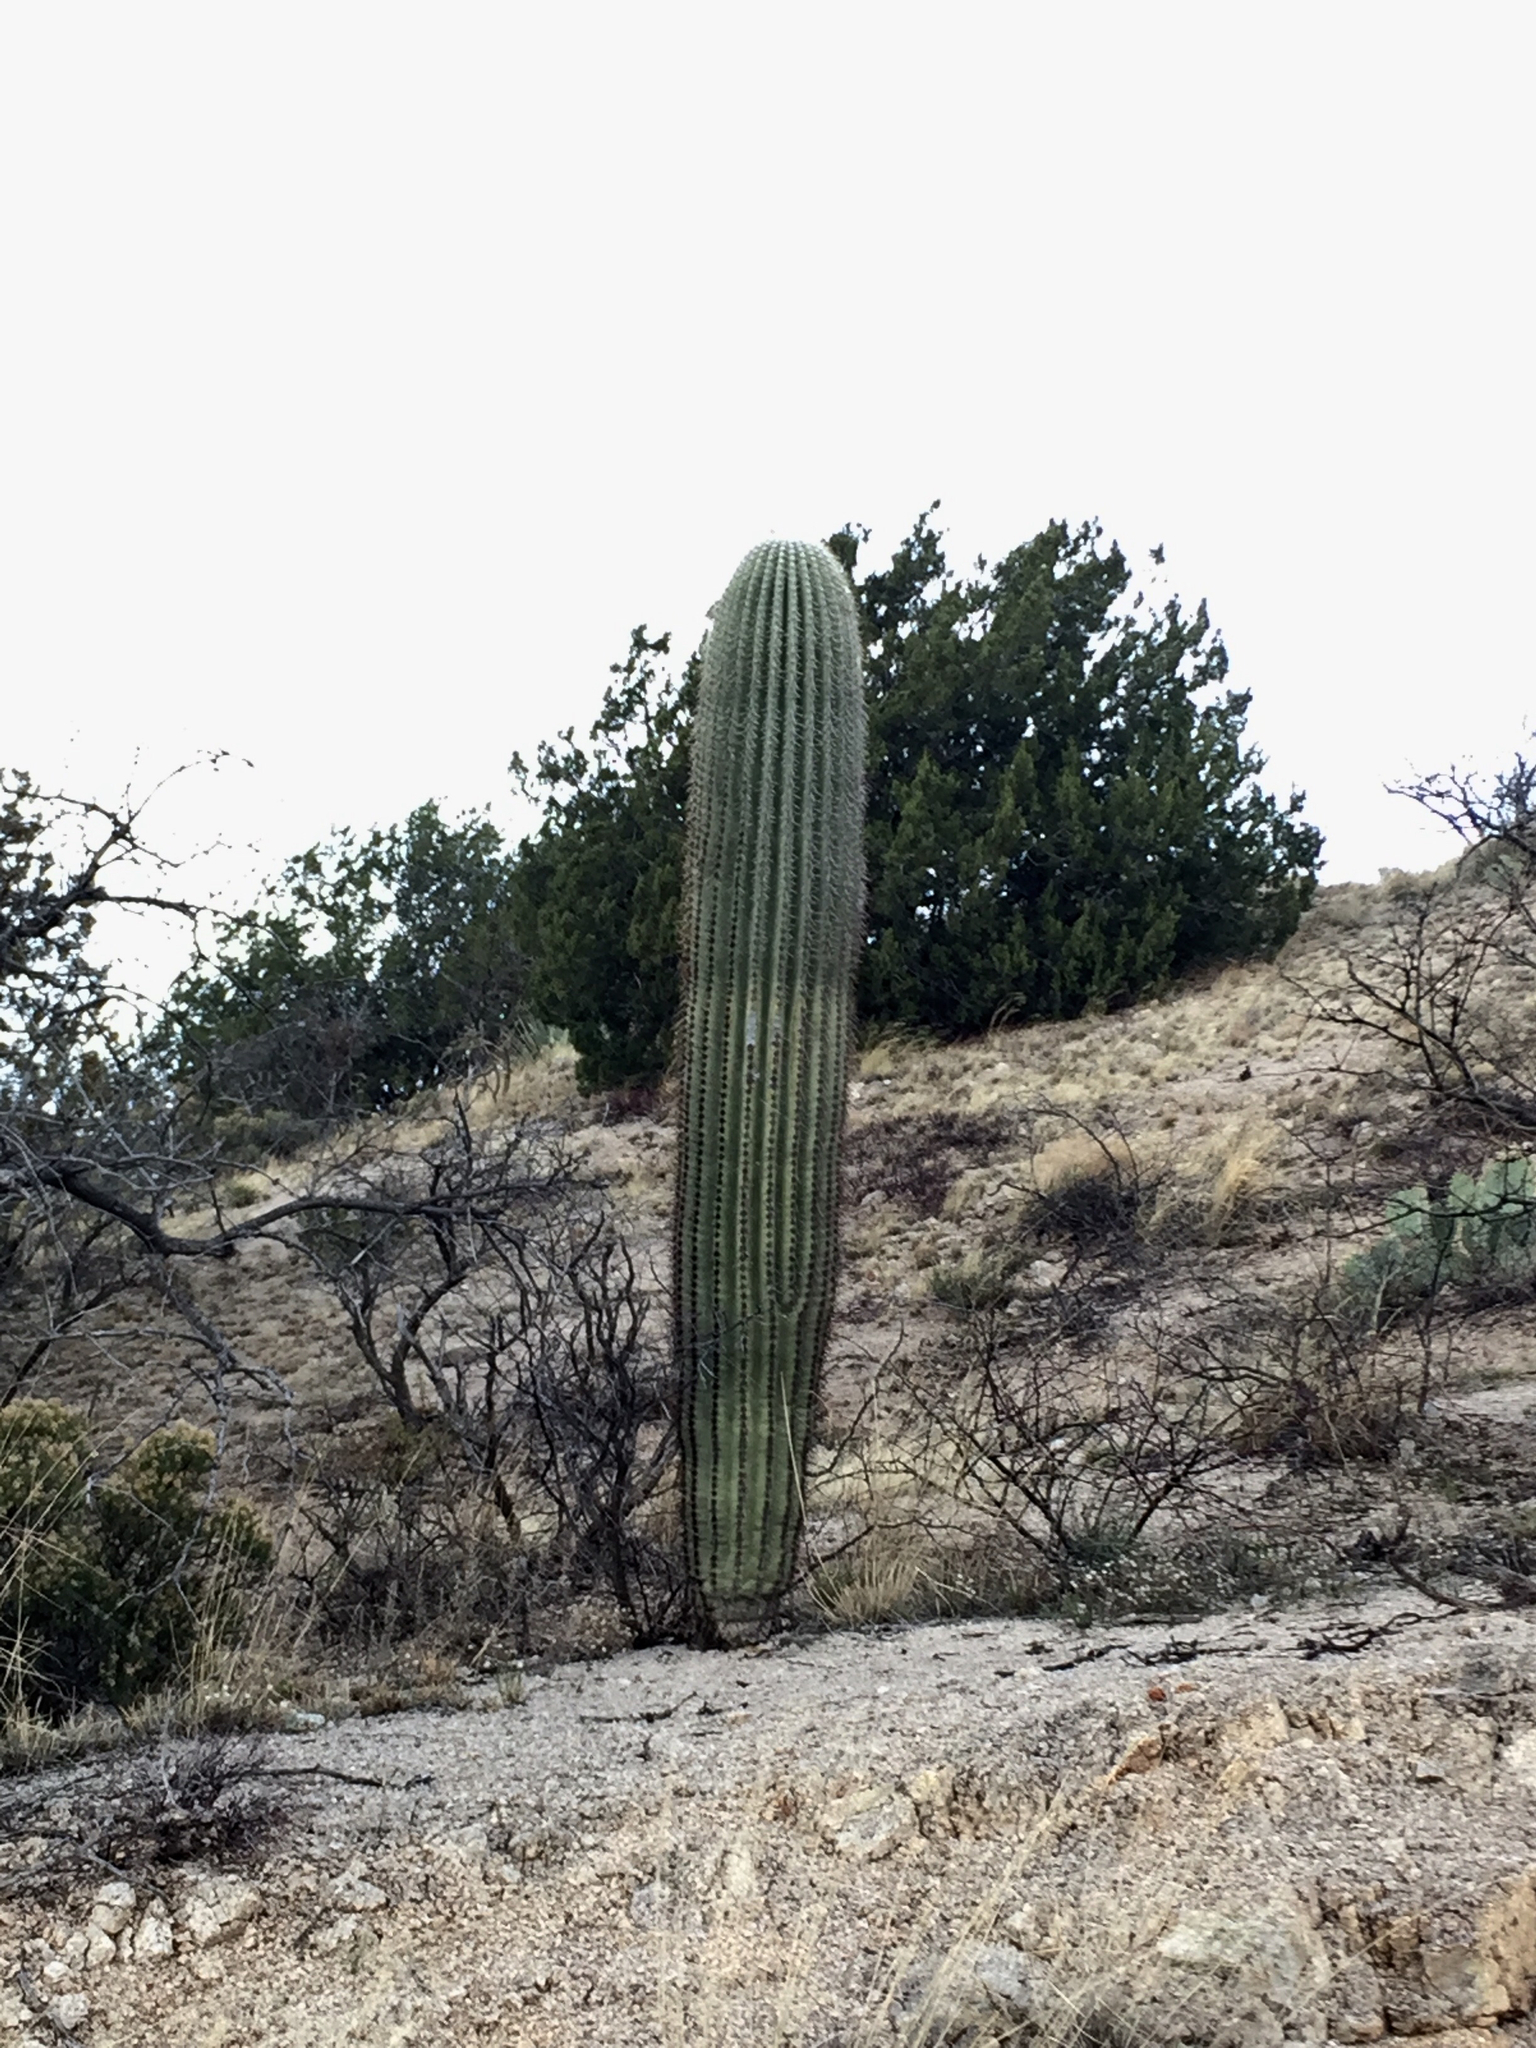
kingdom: Plantae
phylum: Tracheophyta
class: Magnoliopsida
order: Caryophyllales
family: Cactaceae
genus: Carnegiea
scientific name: Carnegiea gigantea
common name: Saguaro
